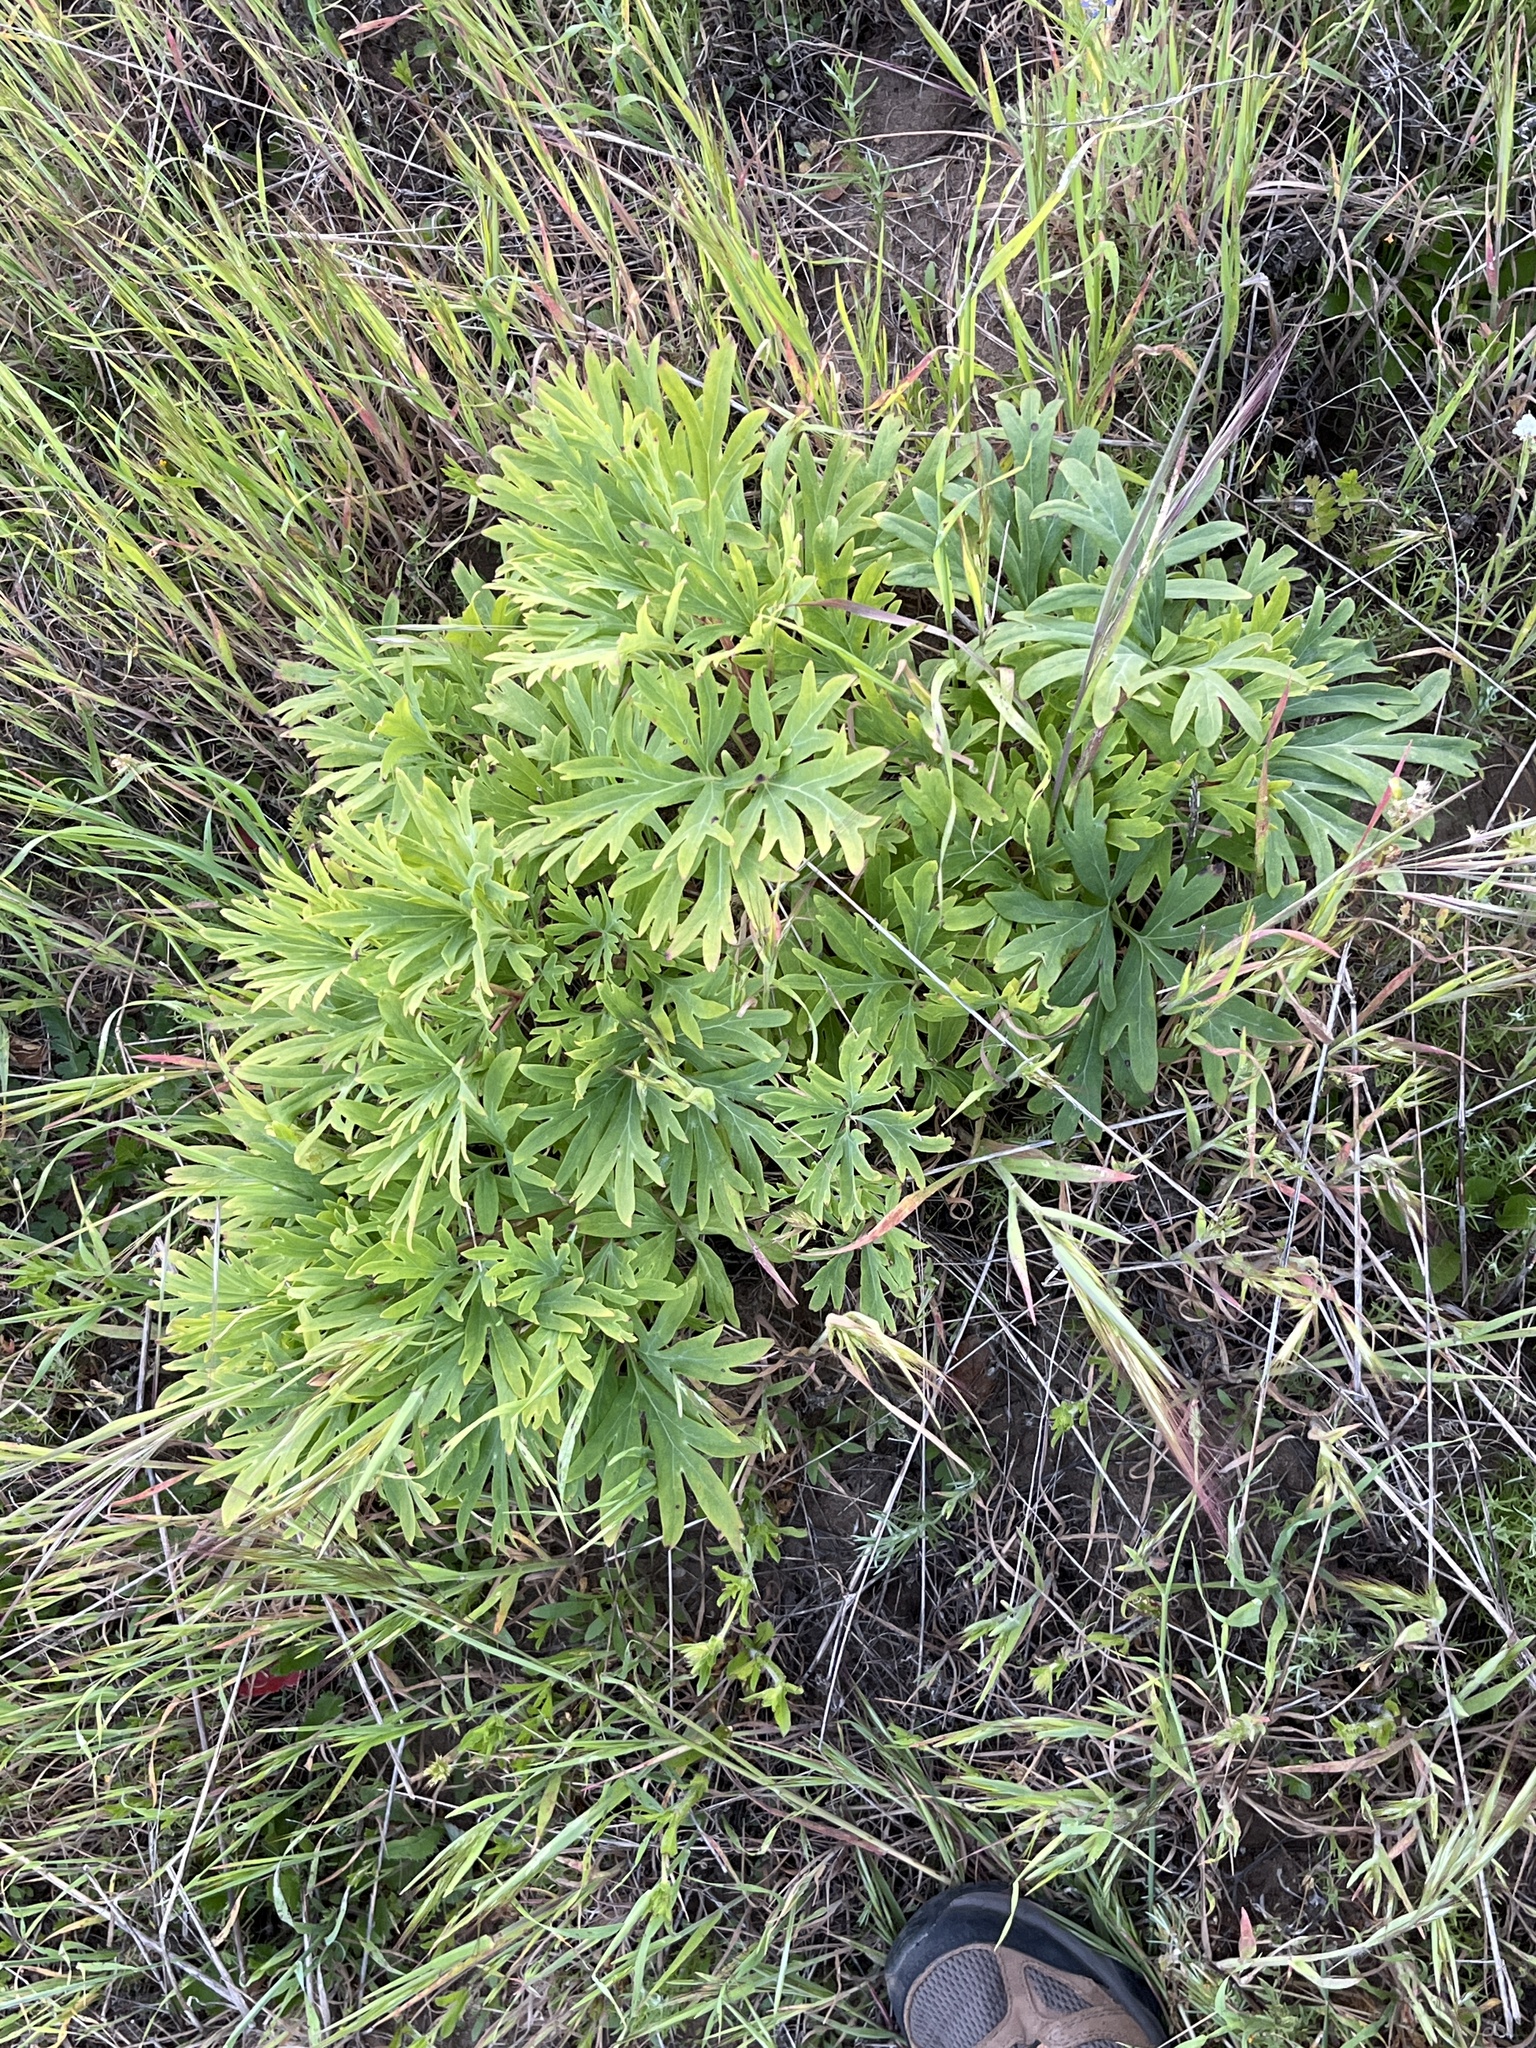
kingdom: Plantae
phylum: Tracheophyta
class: Magnoliopsida
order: Saxifragales
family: Paeoniaceae
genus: Paeonia
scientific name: Paeonia californica
